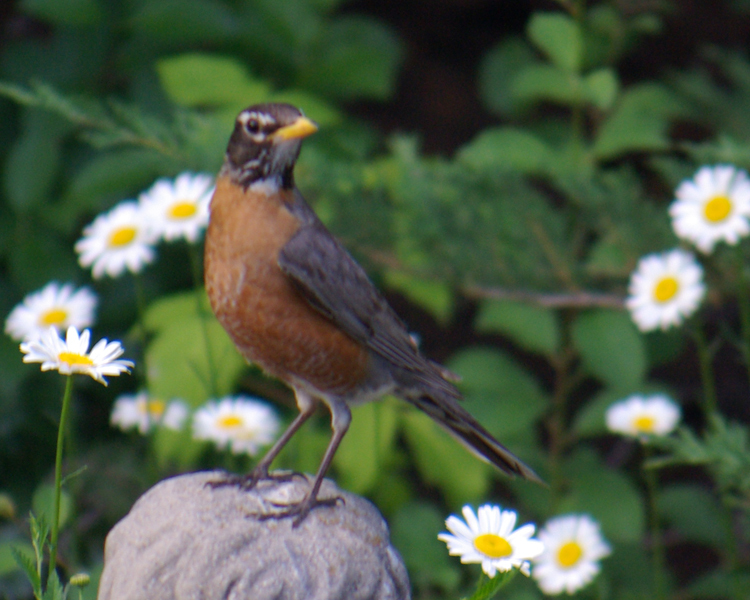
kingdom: Animalia
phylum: Chordata
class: Aves
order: Passeriformes
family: Turdidae
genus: Turdus
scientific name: Turdus migratorius
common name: American robin
